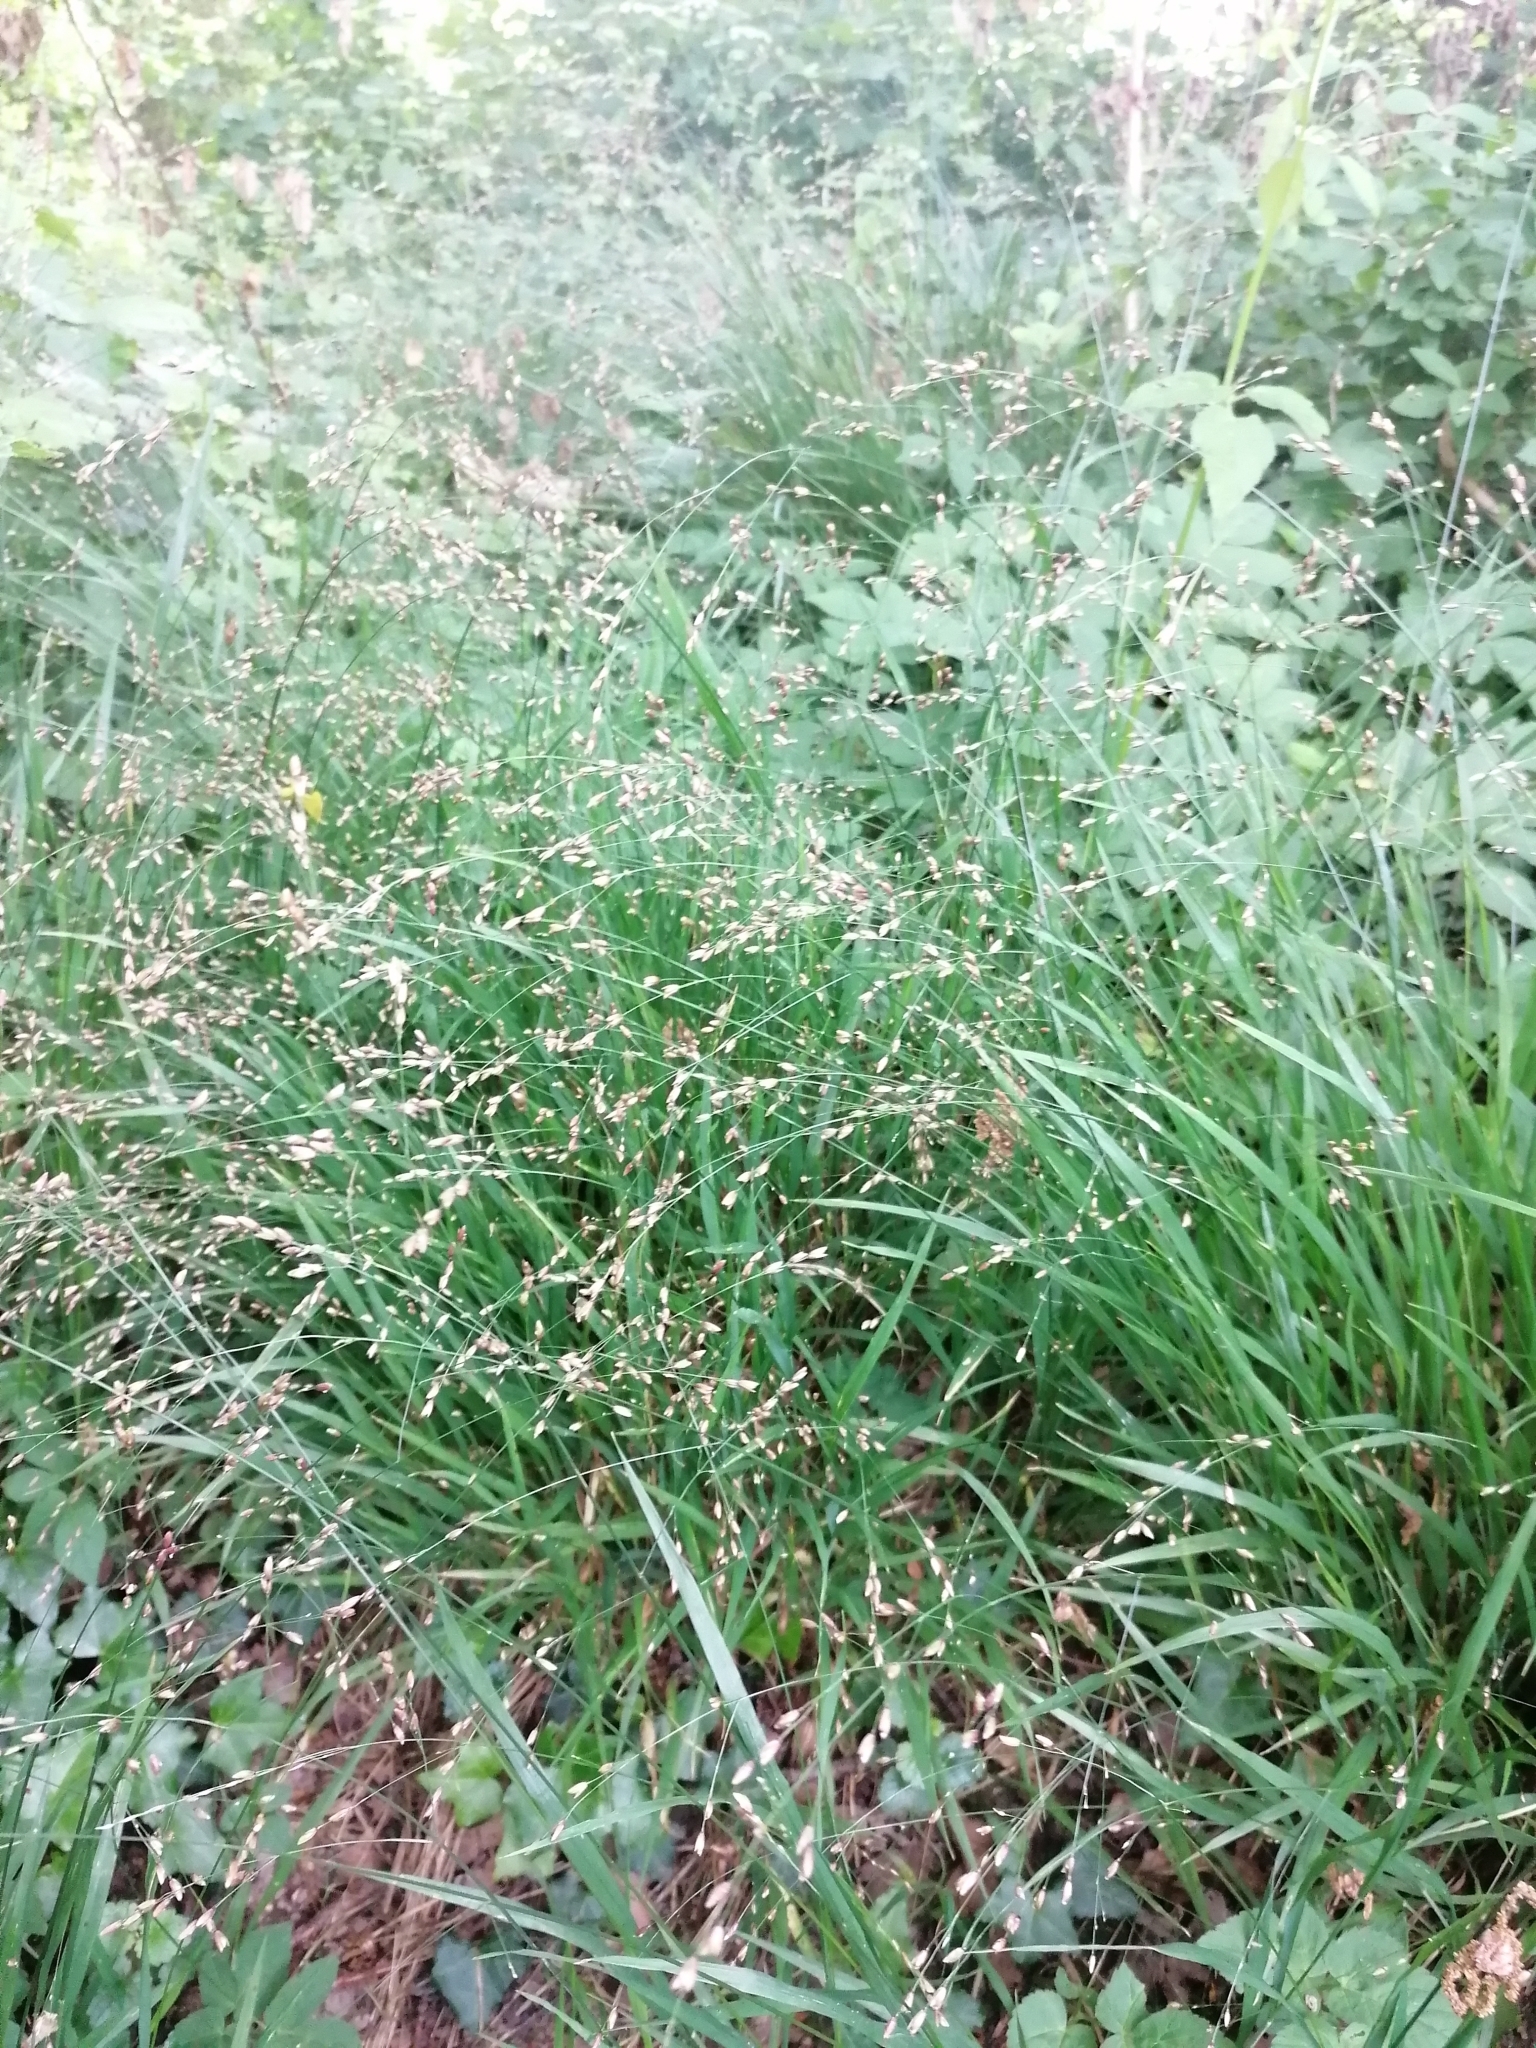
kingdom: Plantae
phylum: Tracheophyta
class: Liliopsida
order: Poales
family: Poaceae
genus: Melica
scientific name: Melica uniflora
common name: Wood melick
